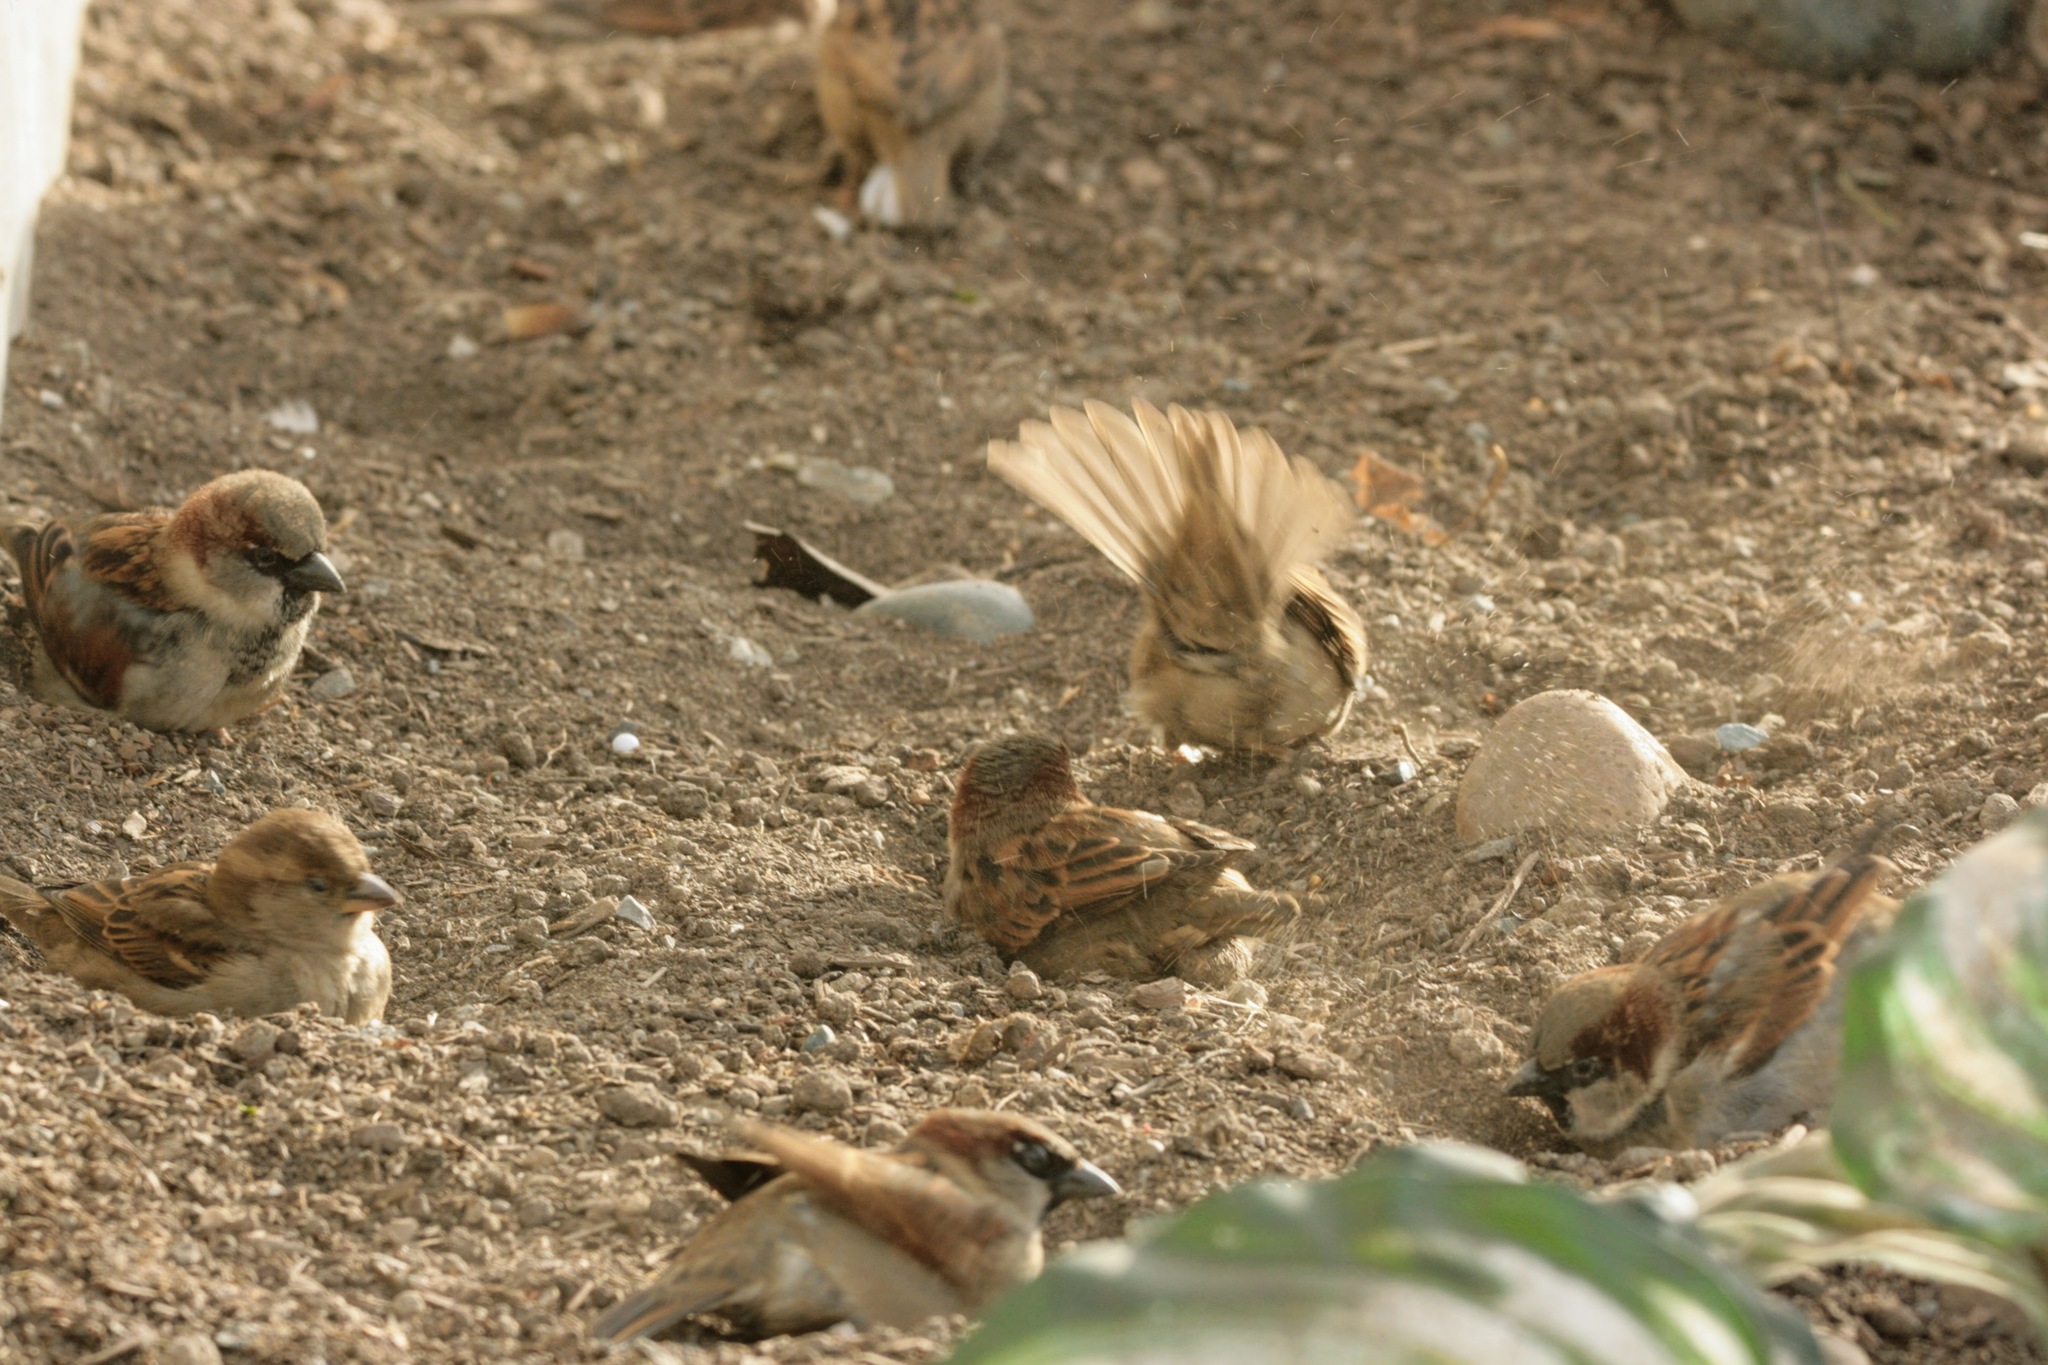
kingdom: Animalia
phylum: Chordata
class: Aves
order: Passeriformes
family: Passeridae
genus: Passer
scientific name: Passer domesticus
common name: House sparrow
